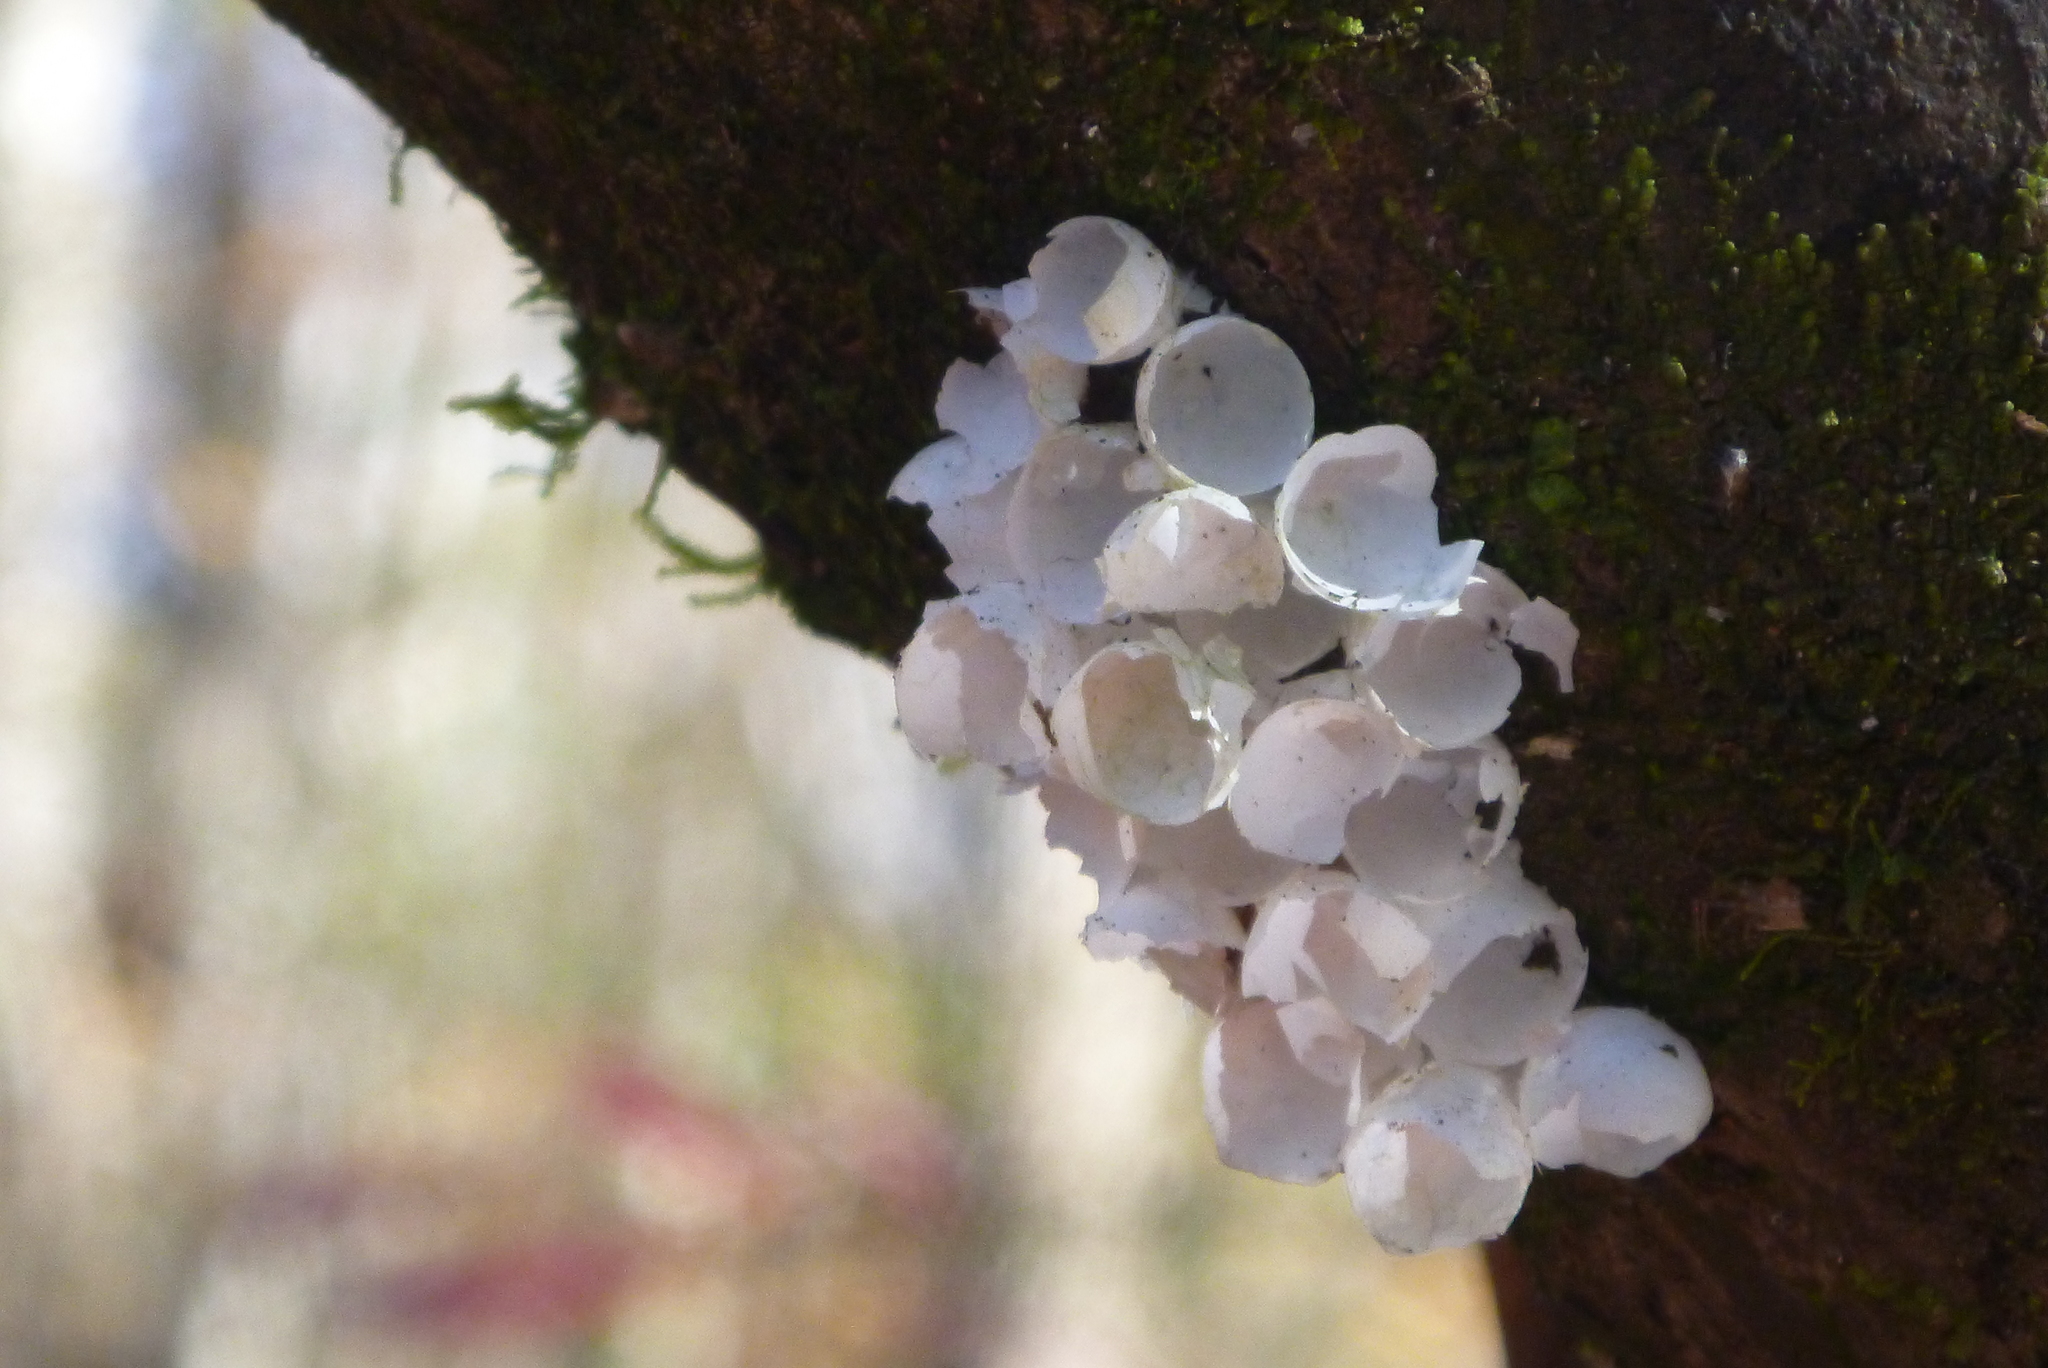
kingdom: Animalia
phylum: Mollusca
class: Gastropoda
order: Architaenioglossa
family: Ampullariidae
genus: Pomacea
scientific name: Pomacea paludosa
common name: Florida applesnail
